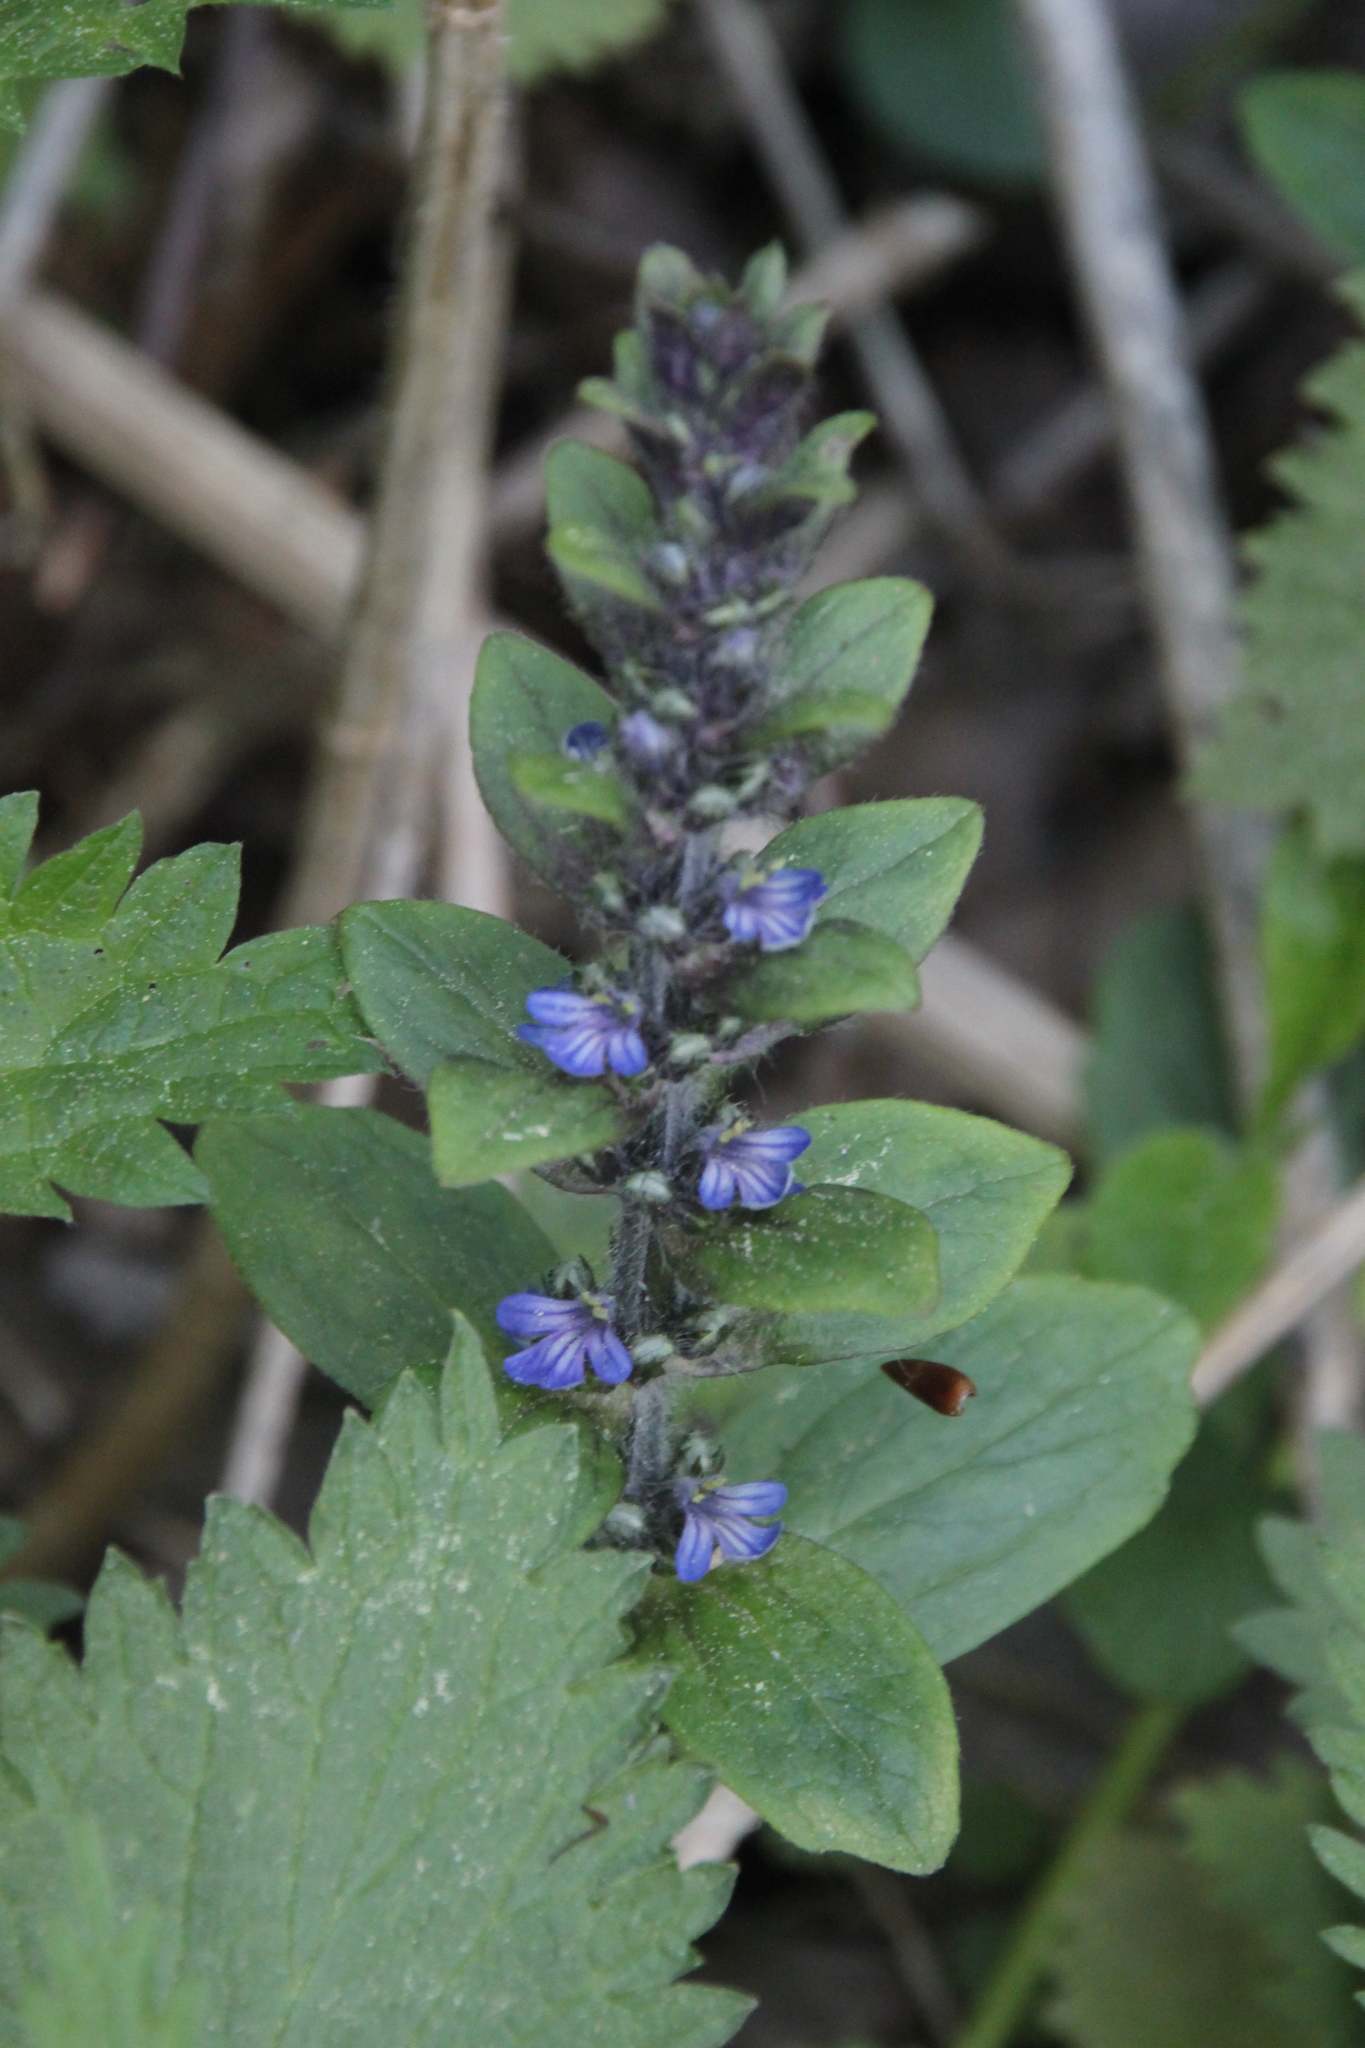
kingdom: Plantae
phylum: Tracheophyta
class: Magnoliopsida
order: Lamiales
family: Lamiaceae
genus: Ajuga
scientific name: Ajuga reptans
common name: Bugle
